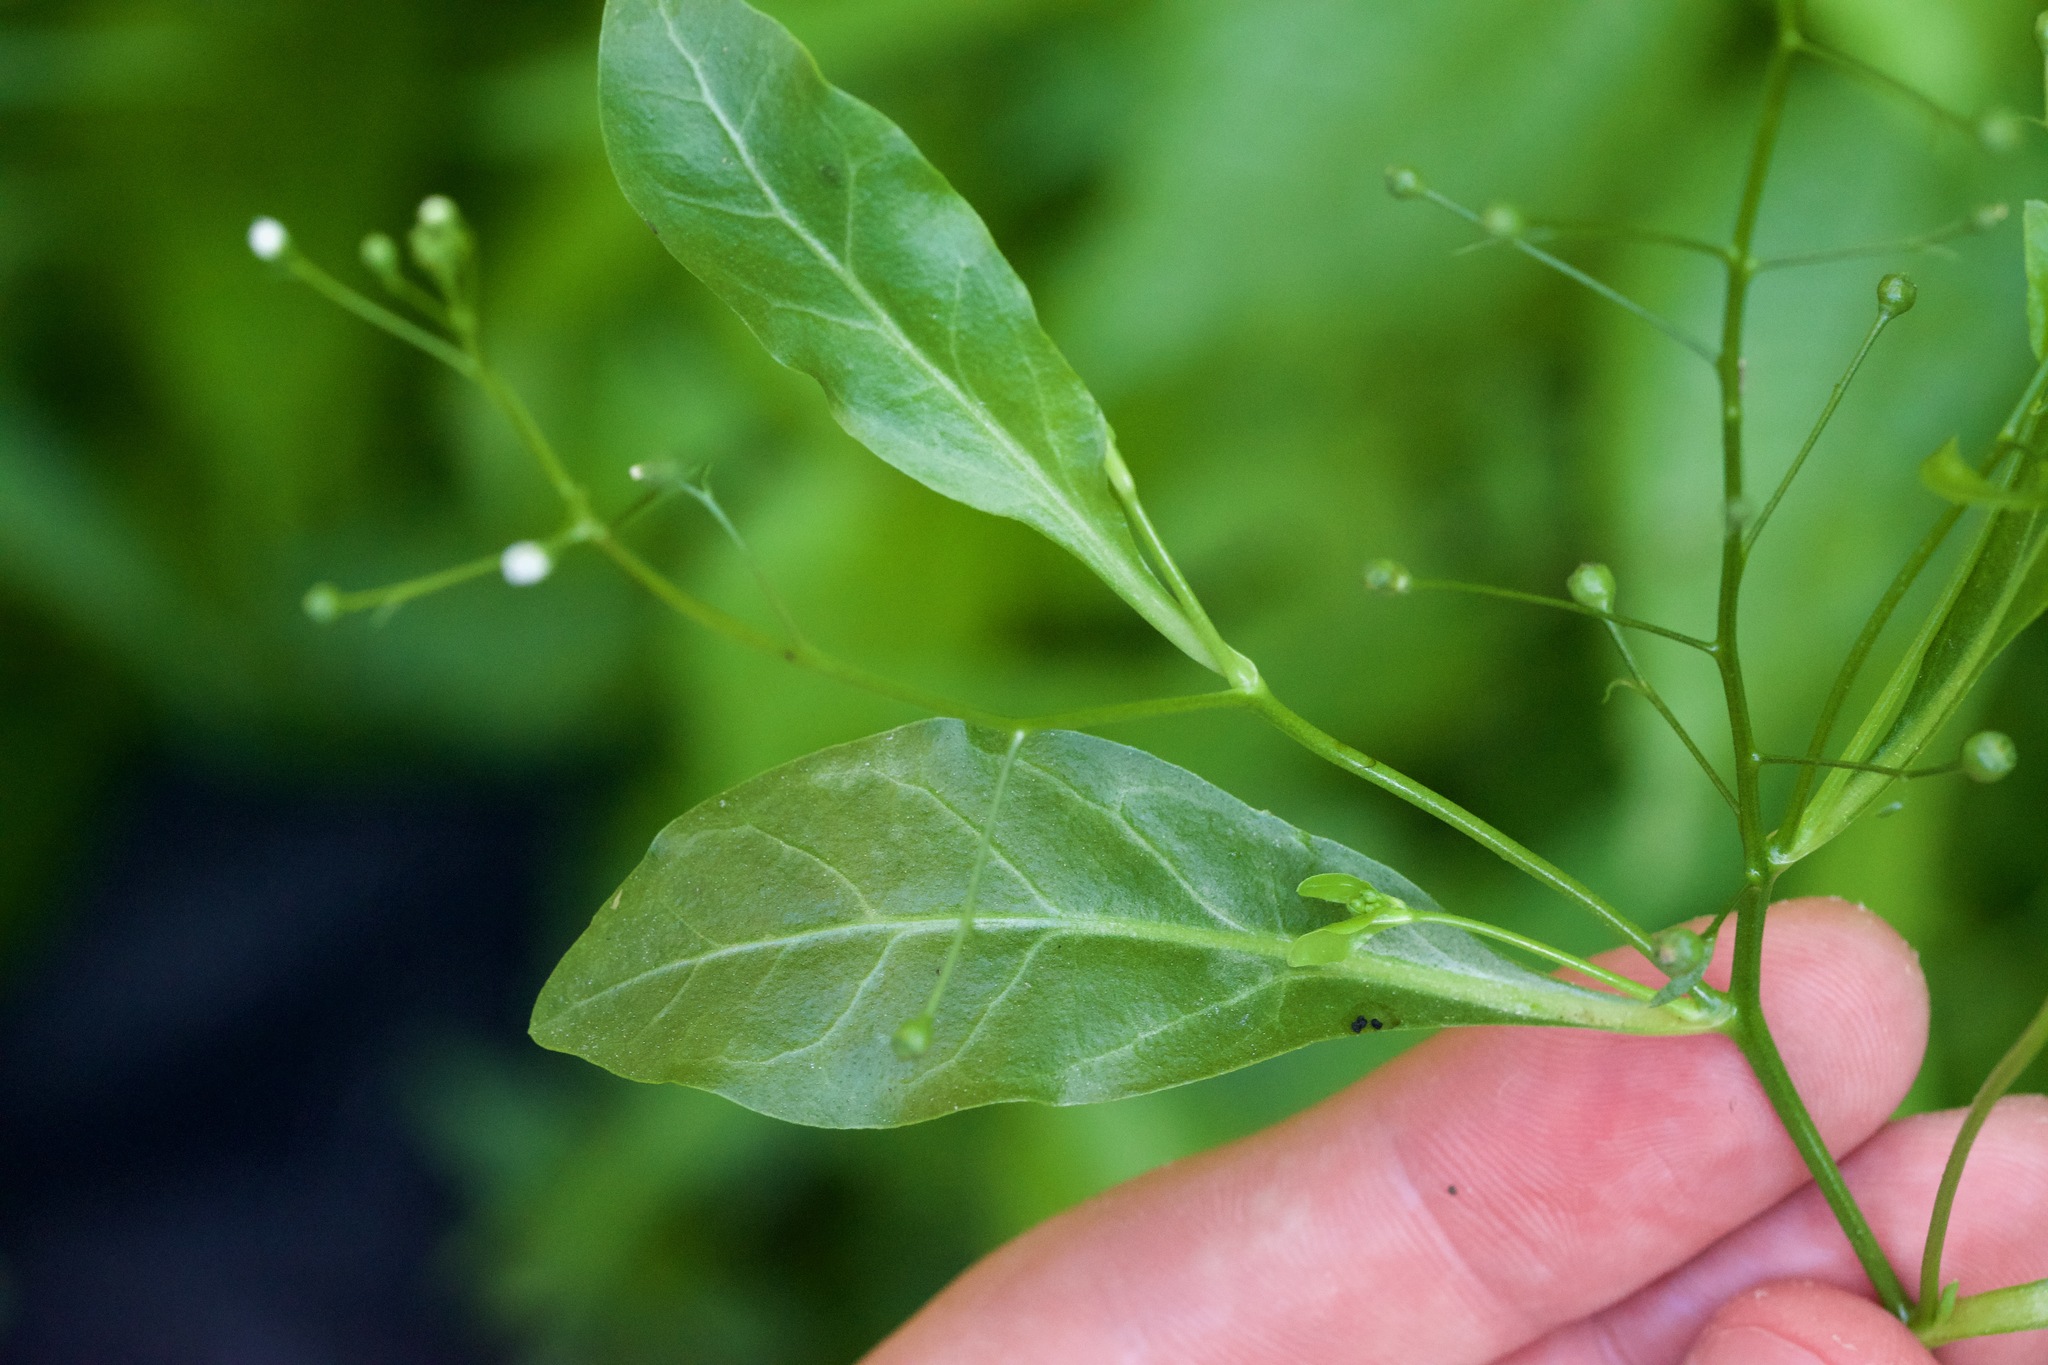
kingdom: Plantae
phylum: Tracheophyta
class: Magnoliopsida
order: Ericales
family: Primulaceae
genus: Samolus
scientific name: Samolus parviflorus
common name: False water pimpernel
